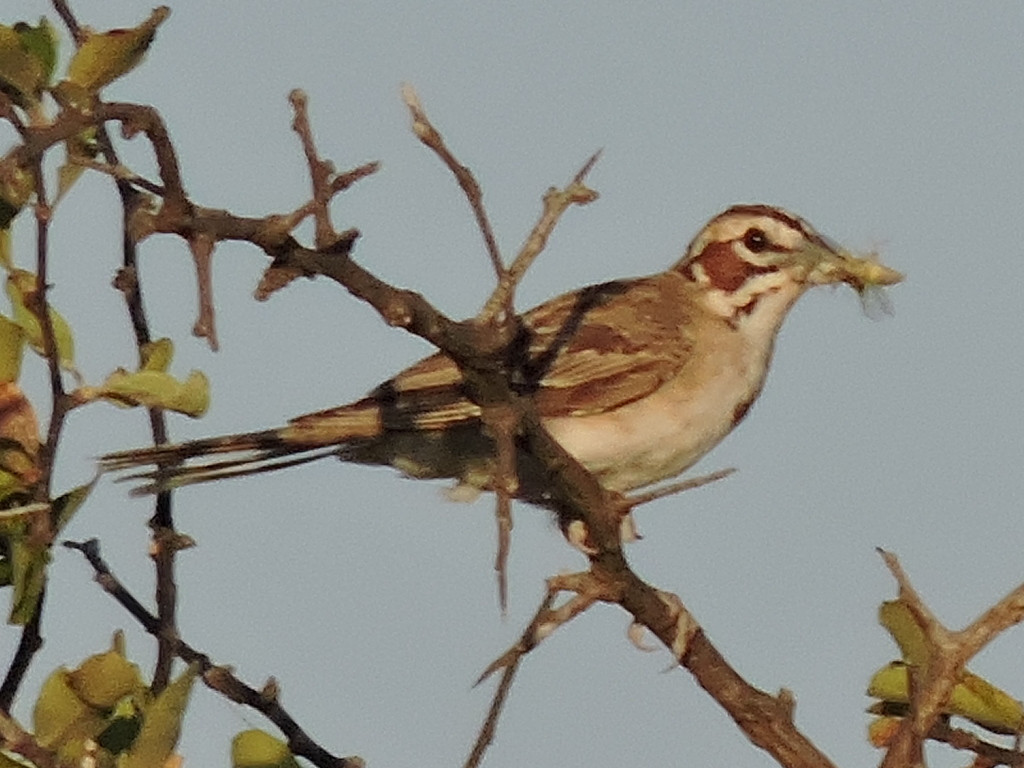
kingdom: Animalia
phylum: Chordata
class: Aves
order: Passeriformes
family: Passerellidae
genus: Chondestes
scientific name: Chondestes grammacus
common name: Lark sparrow
